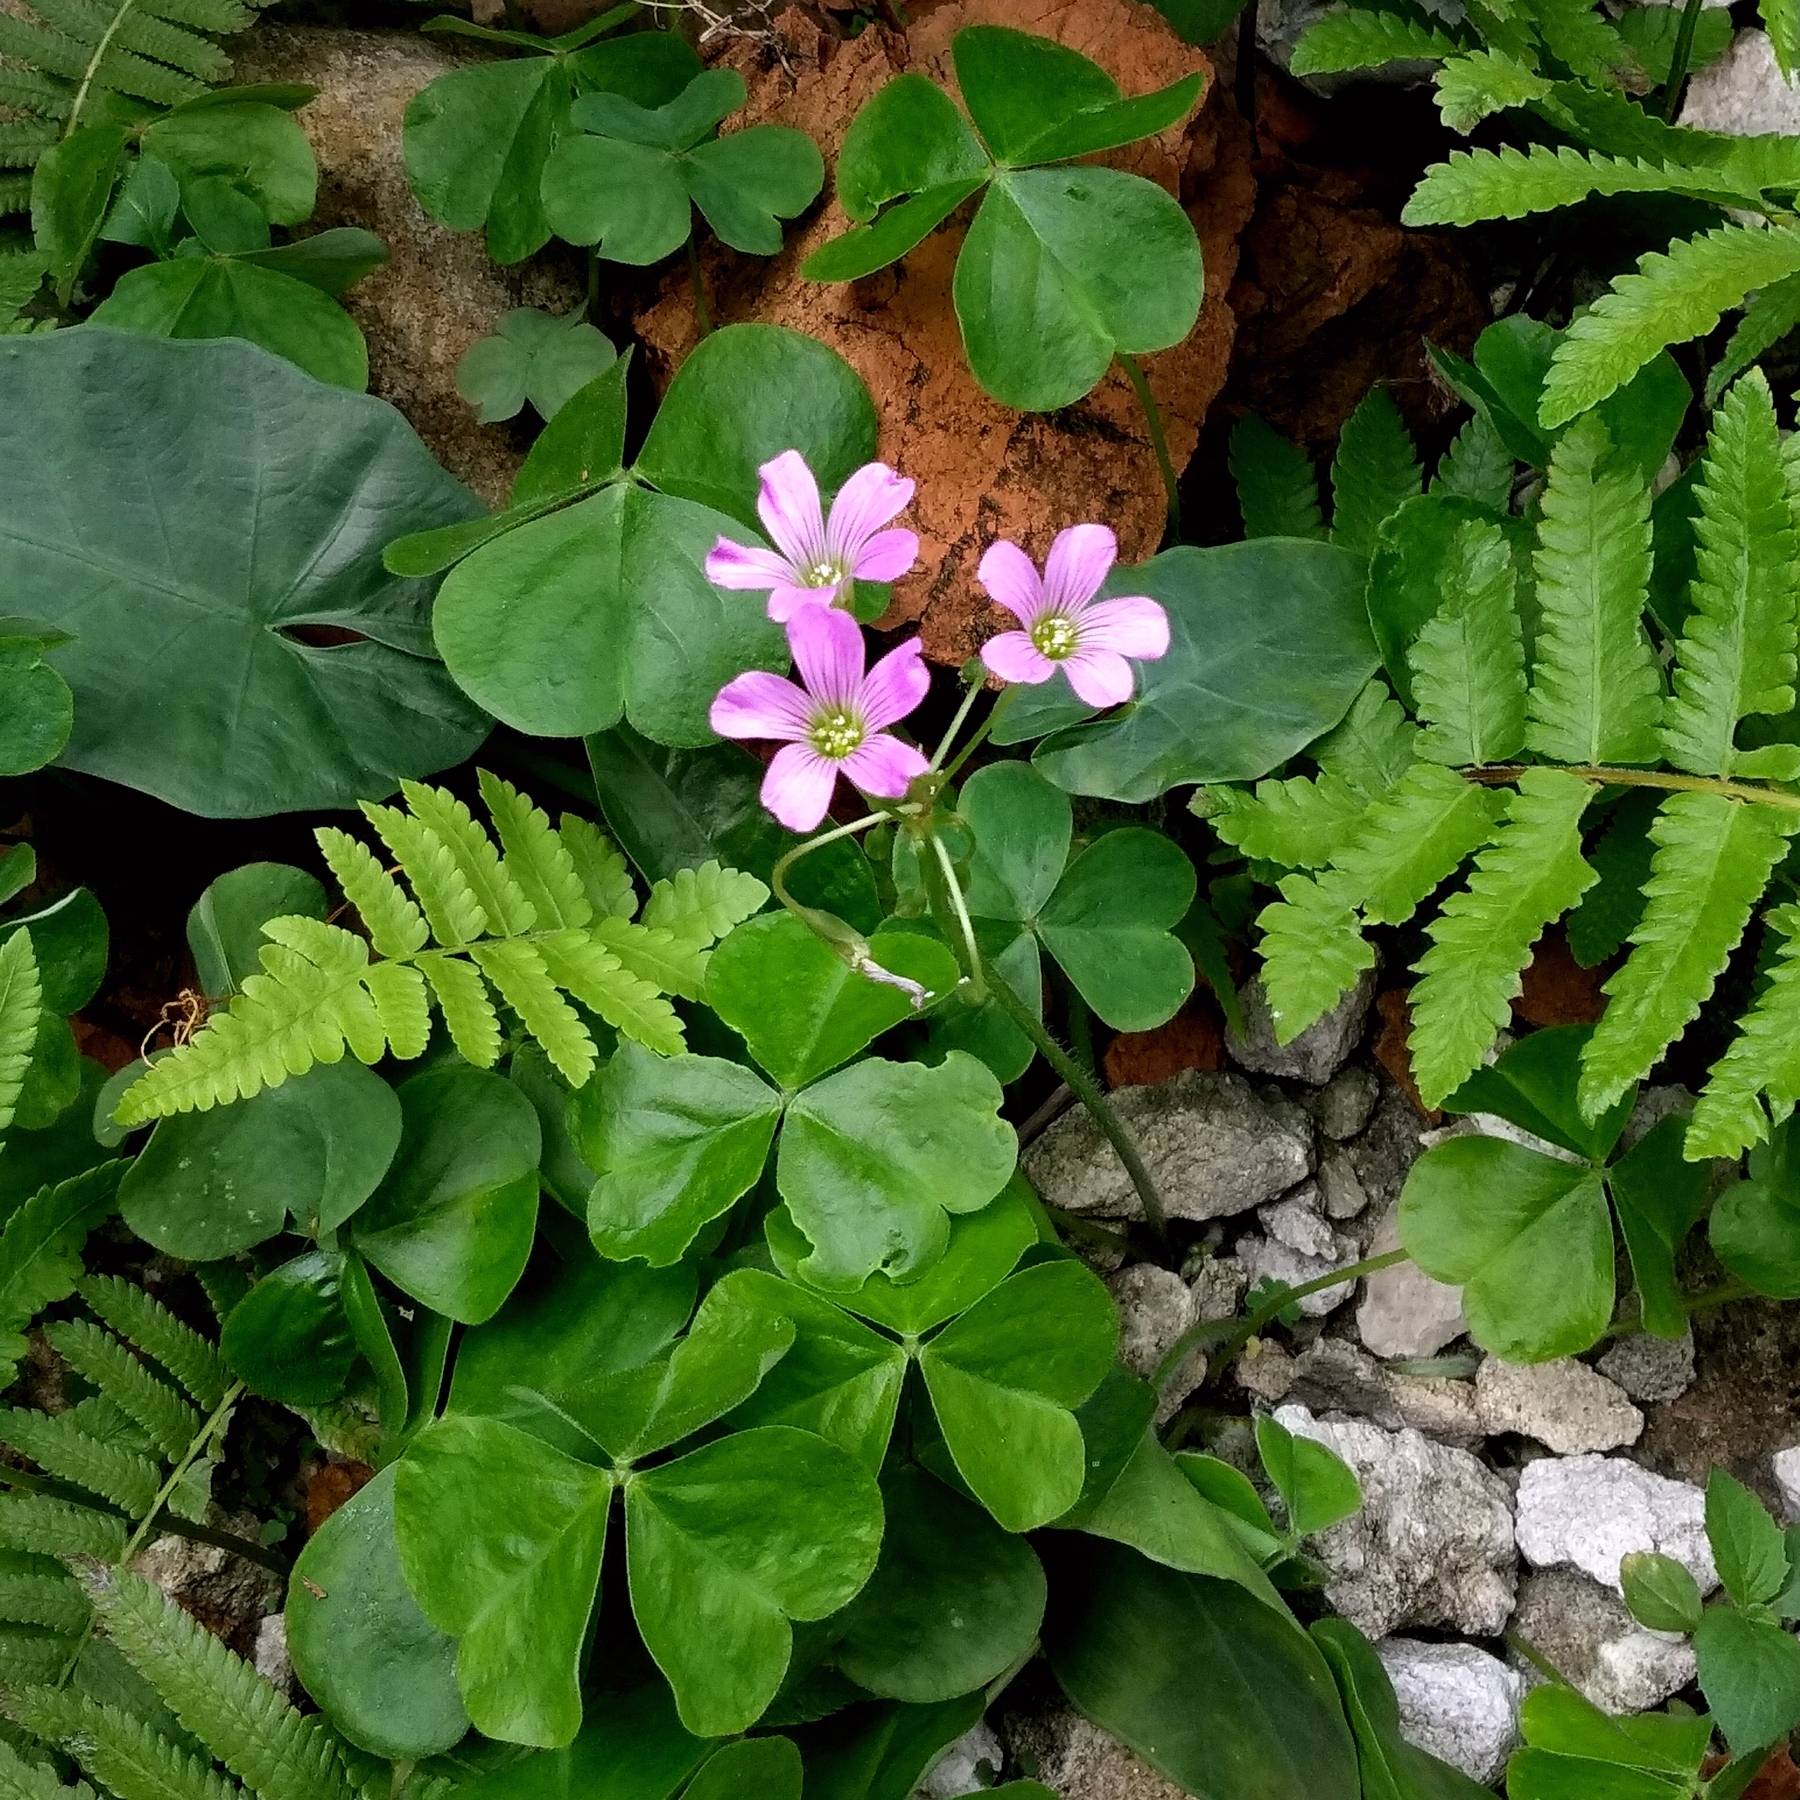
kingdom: Plantae
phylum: Tracheophyta
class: Magnoliopsida
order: Oxalidales
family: Oxalidaceae
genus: Oxalis
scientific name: Oxalis debilis
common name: Large-flowered pink-sorrel
